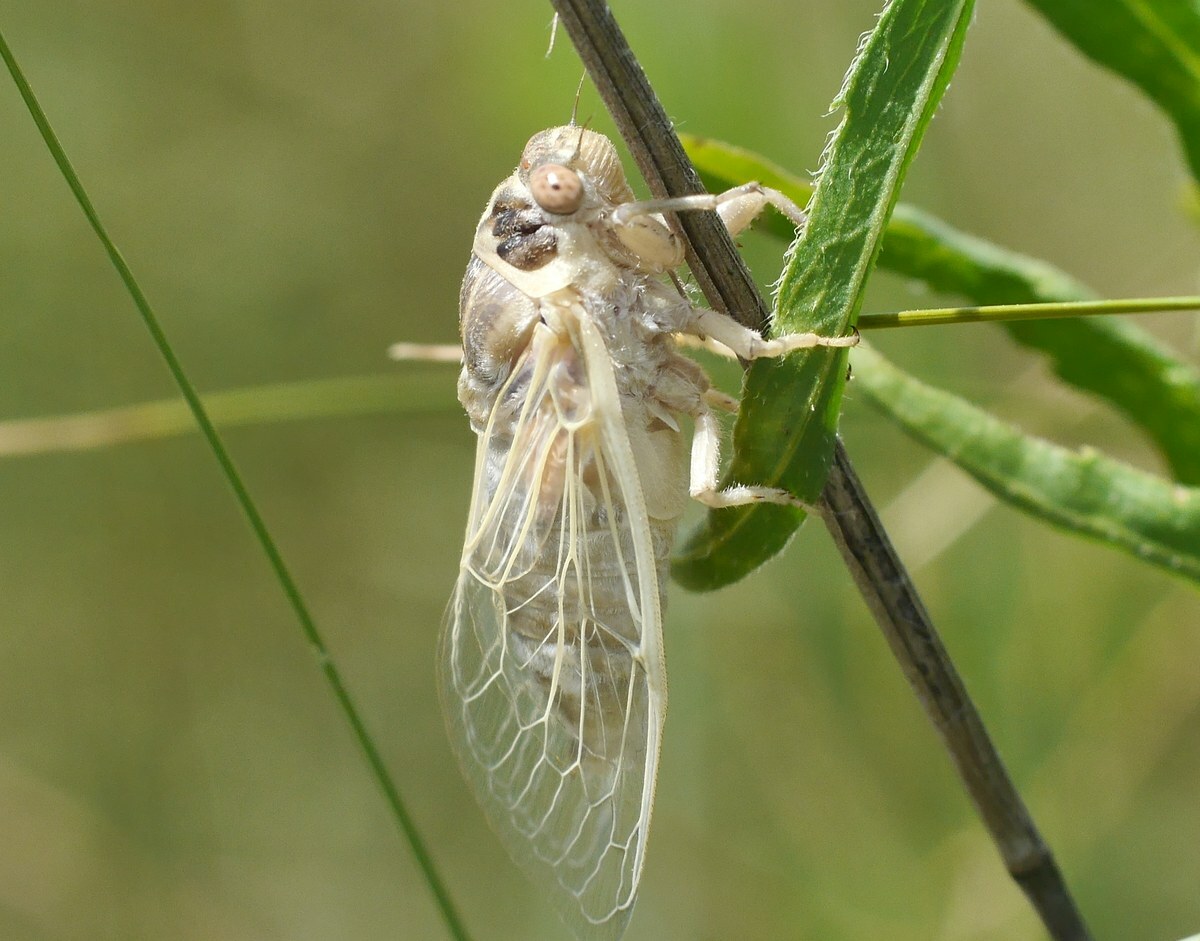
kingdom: Animalia
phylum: Arthropoda
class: Insecta
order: Hemiptera
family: Cicadidae
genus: Cicadatra
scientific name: Cicadatra platyptera
